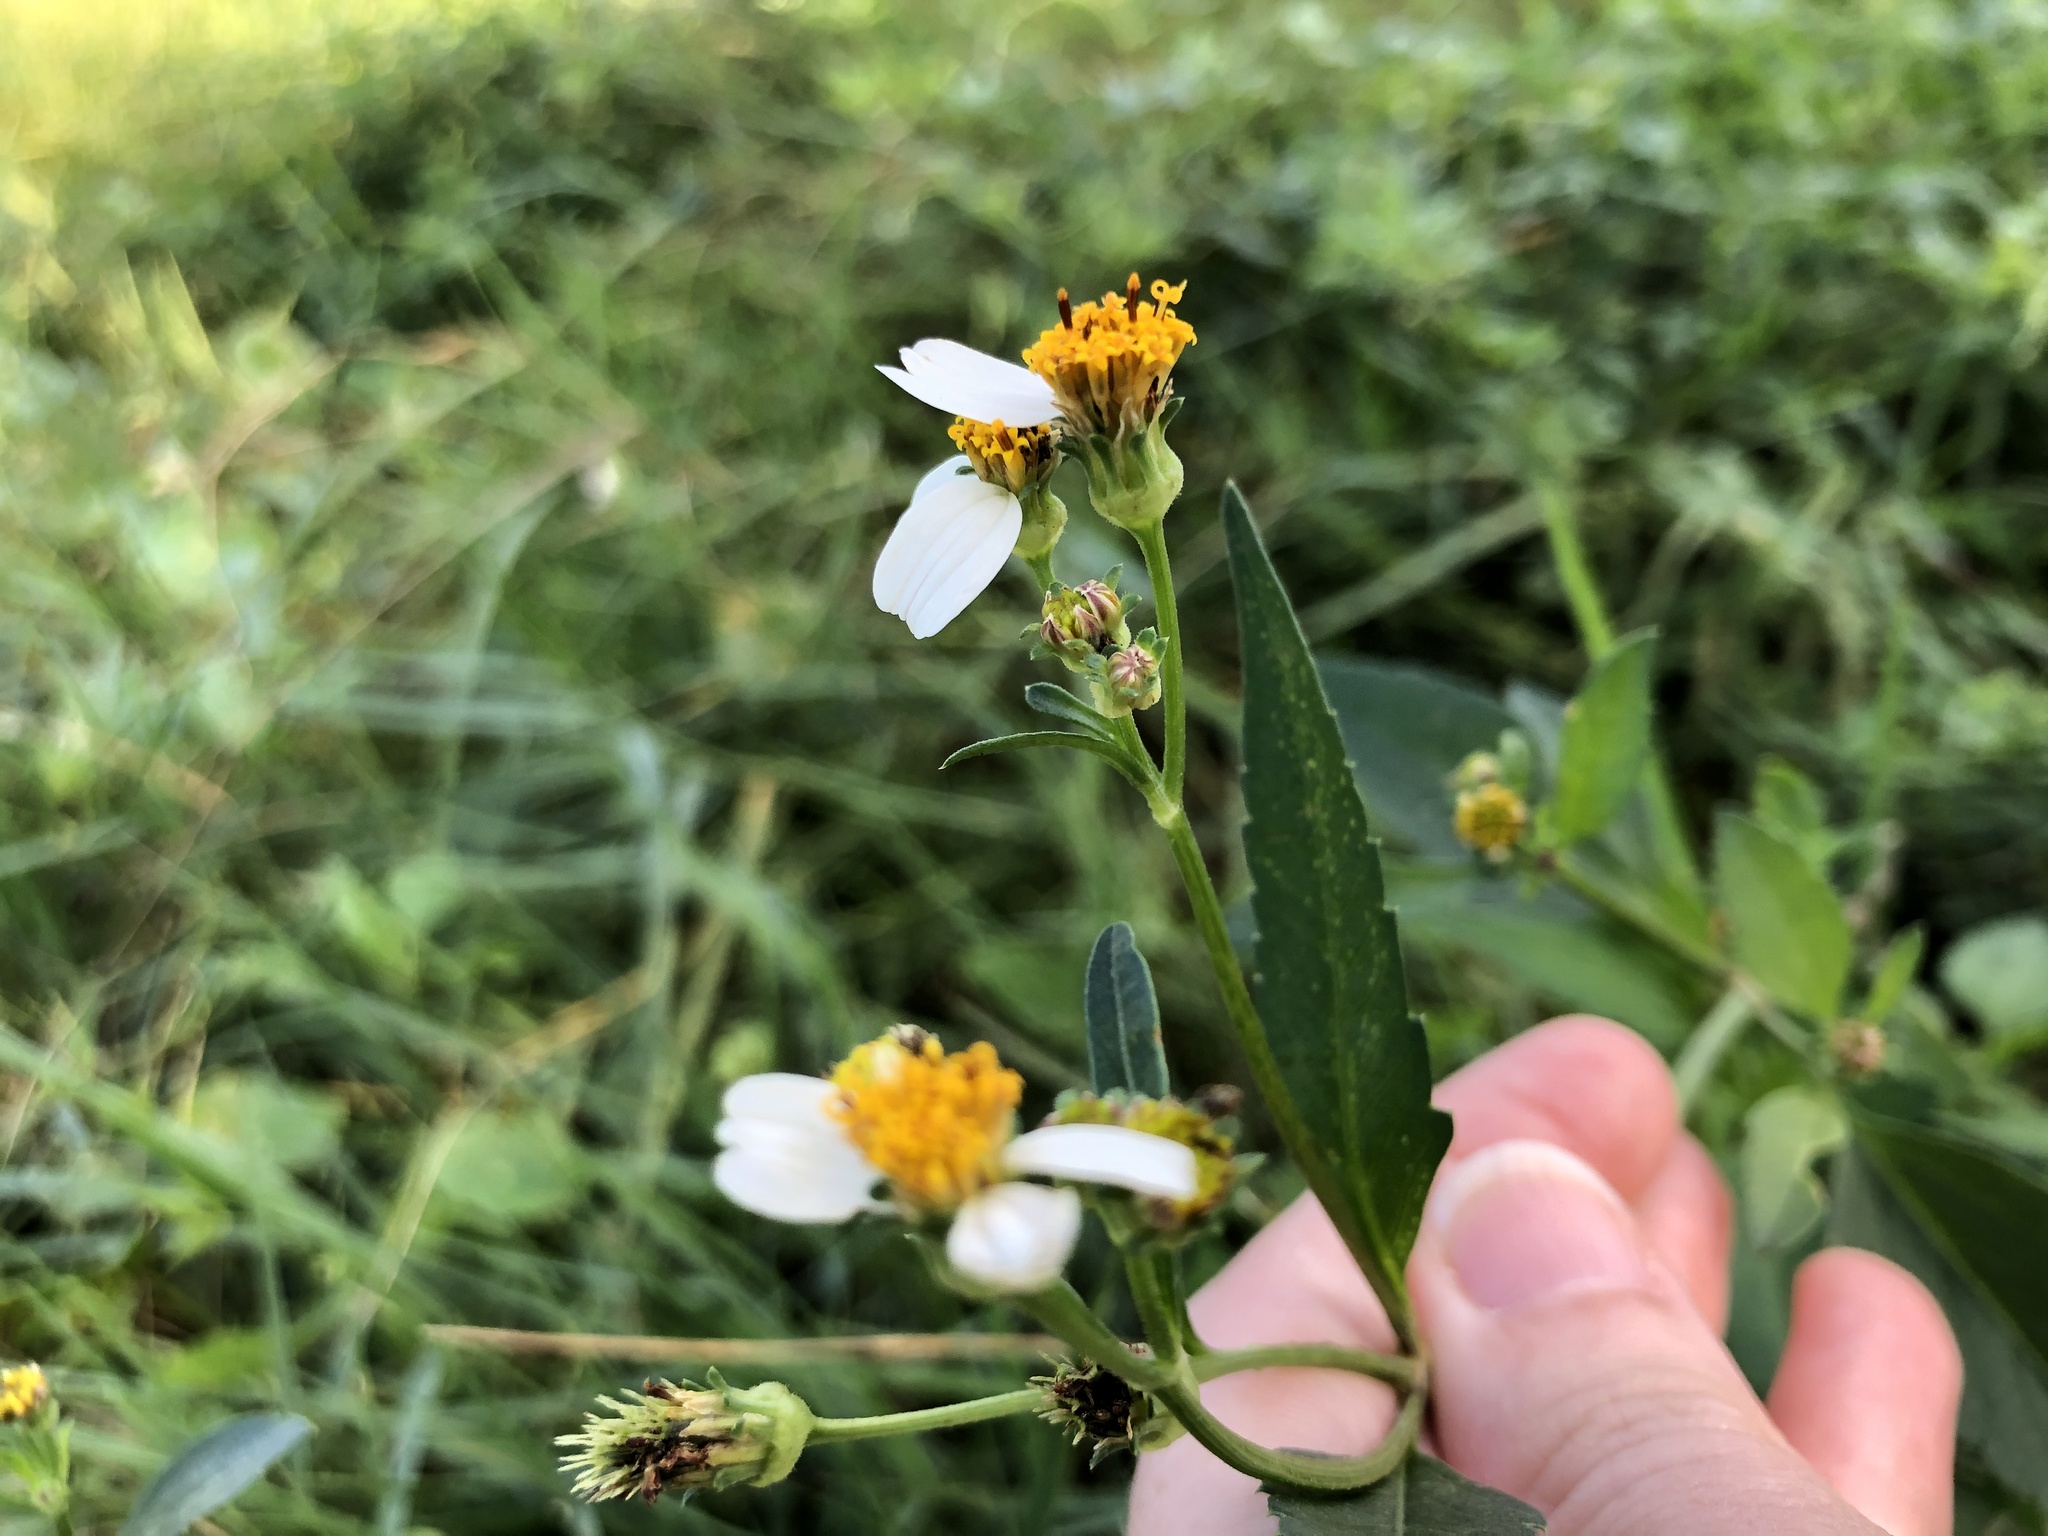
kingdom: Plantae
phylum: Tracheophyta
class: Magnoliopsida
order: Asterales
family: Asteraceae
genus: Bidens
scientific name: Bidens alba
